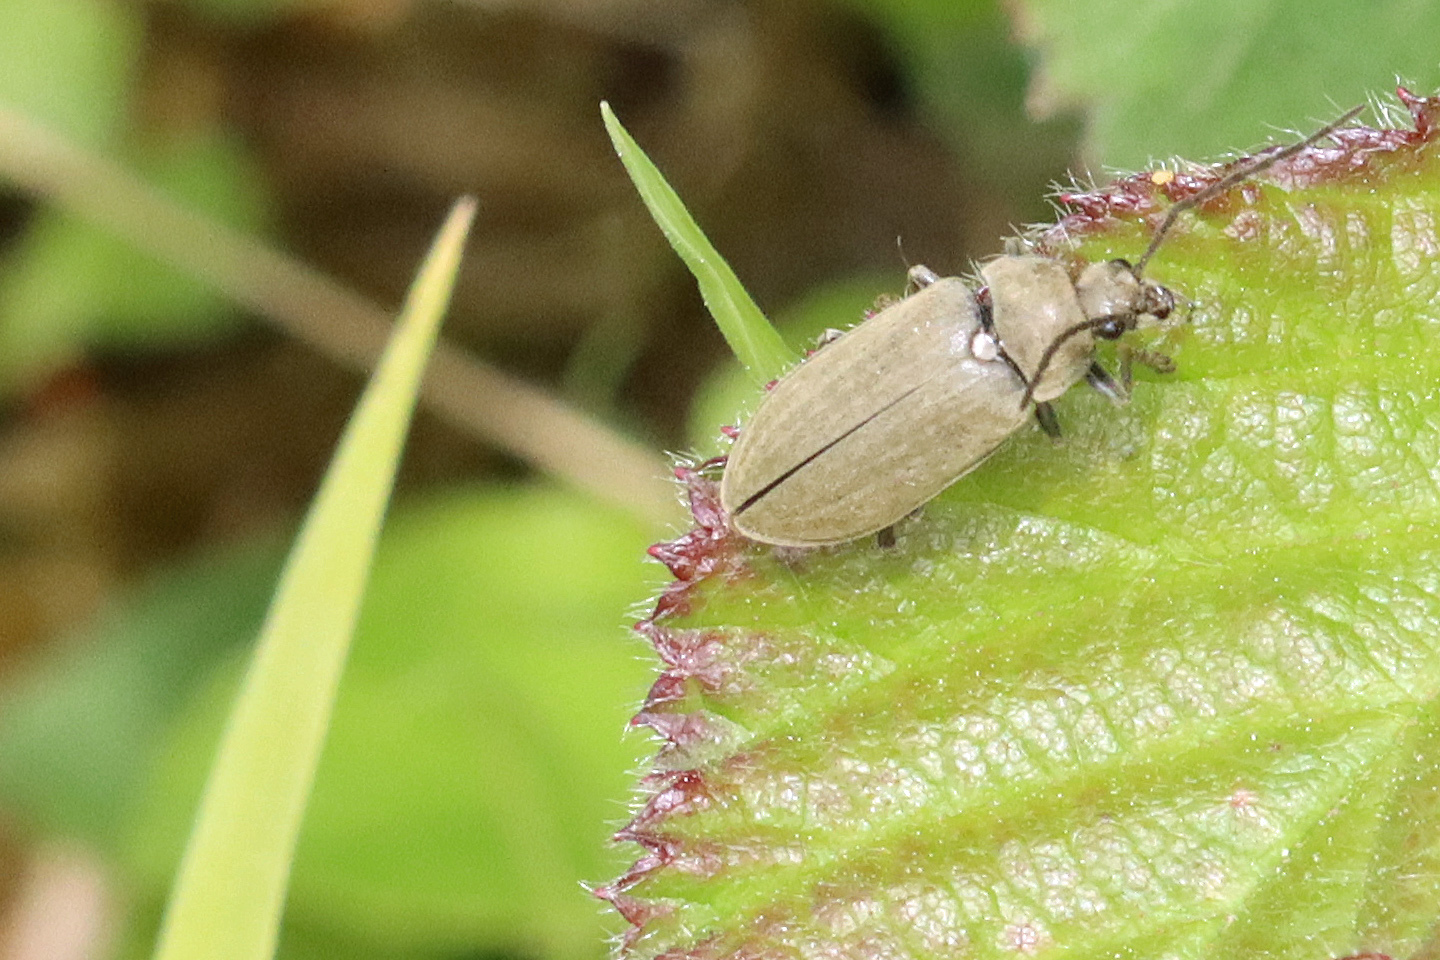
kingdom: Animalia
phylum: Arthropoda
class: Insecta
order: Coleoptera
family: Dascillidae
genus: Dascillus
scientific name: Dascillus cervinus
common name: Orchid beetle
